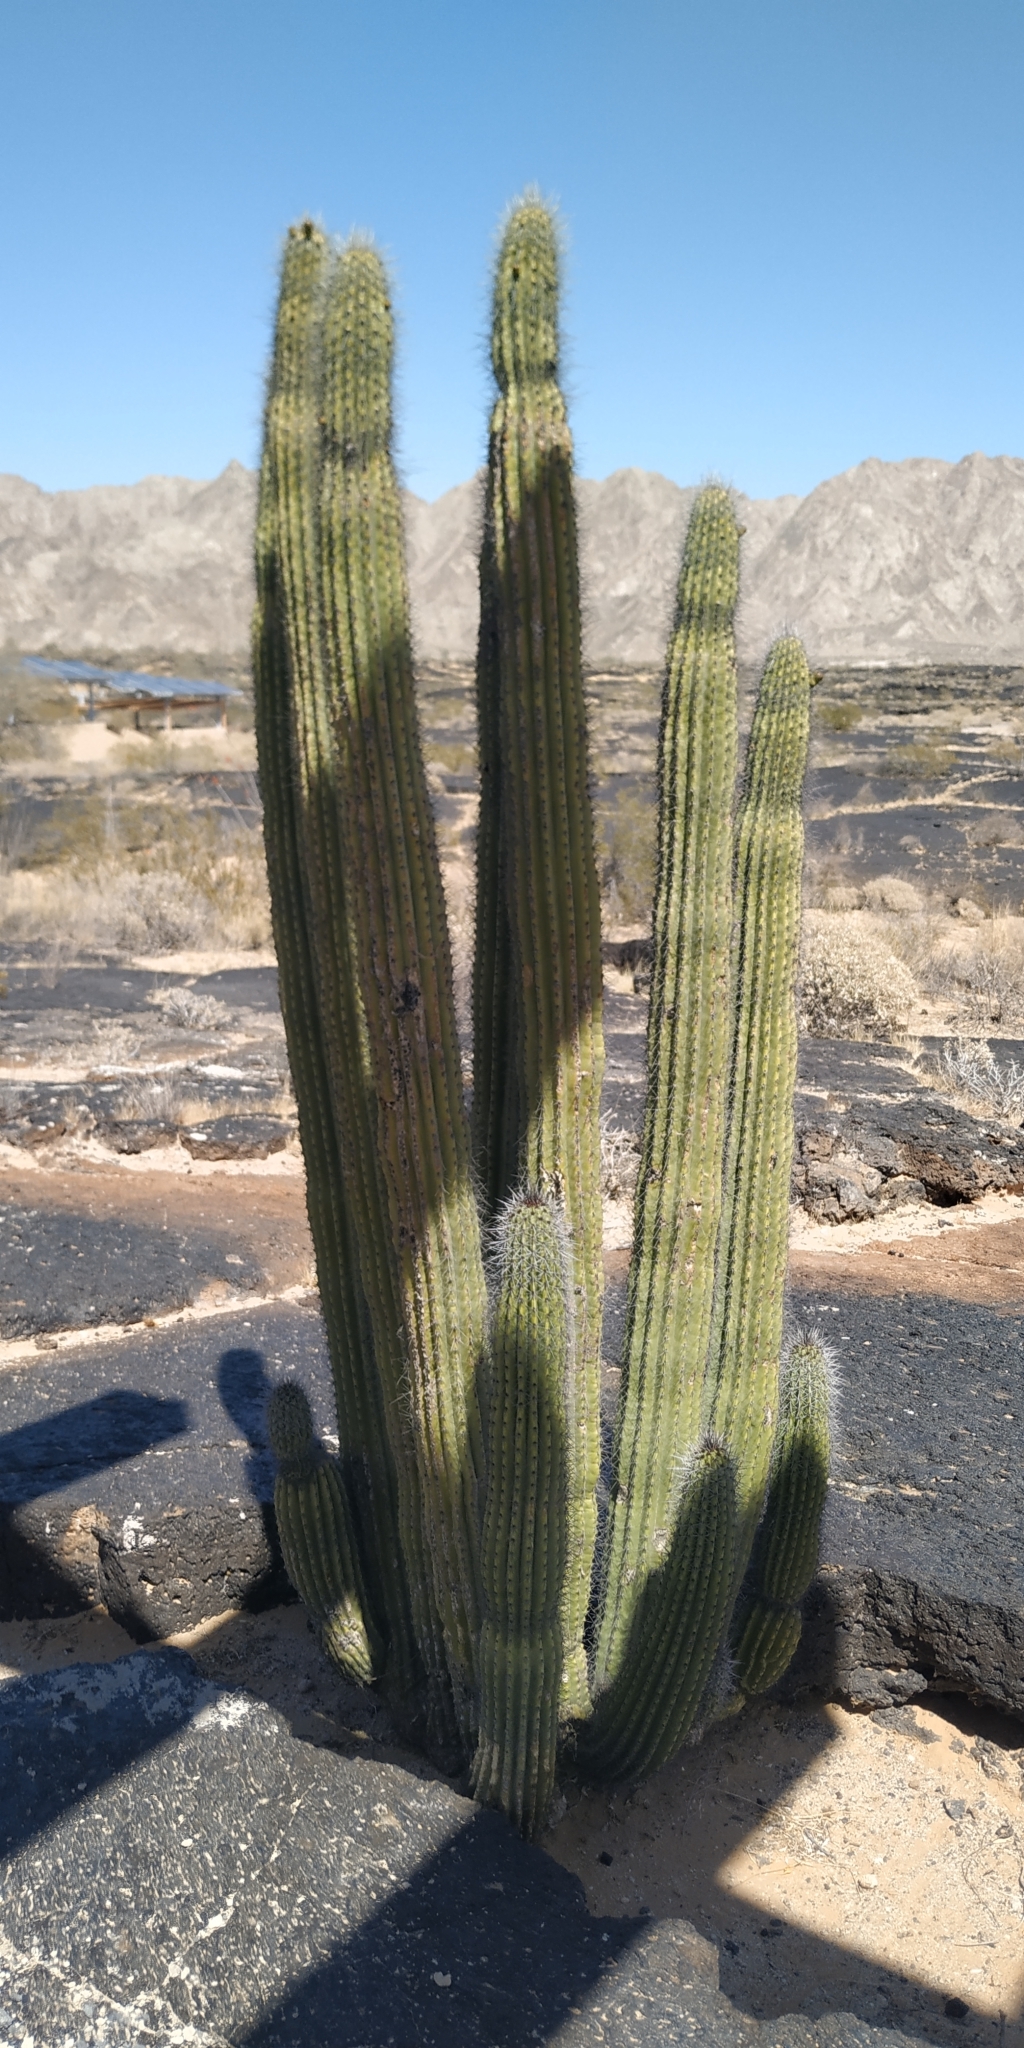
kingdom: Plantae
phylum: Tracheophyta
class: Magnoliopsida
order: Caryophyllales
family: Cactaceae
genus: Stenocereus
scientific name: Stenocereus thurberi
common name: Organ pipe cactus
